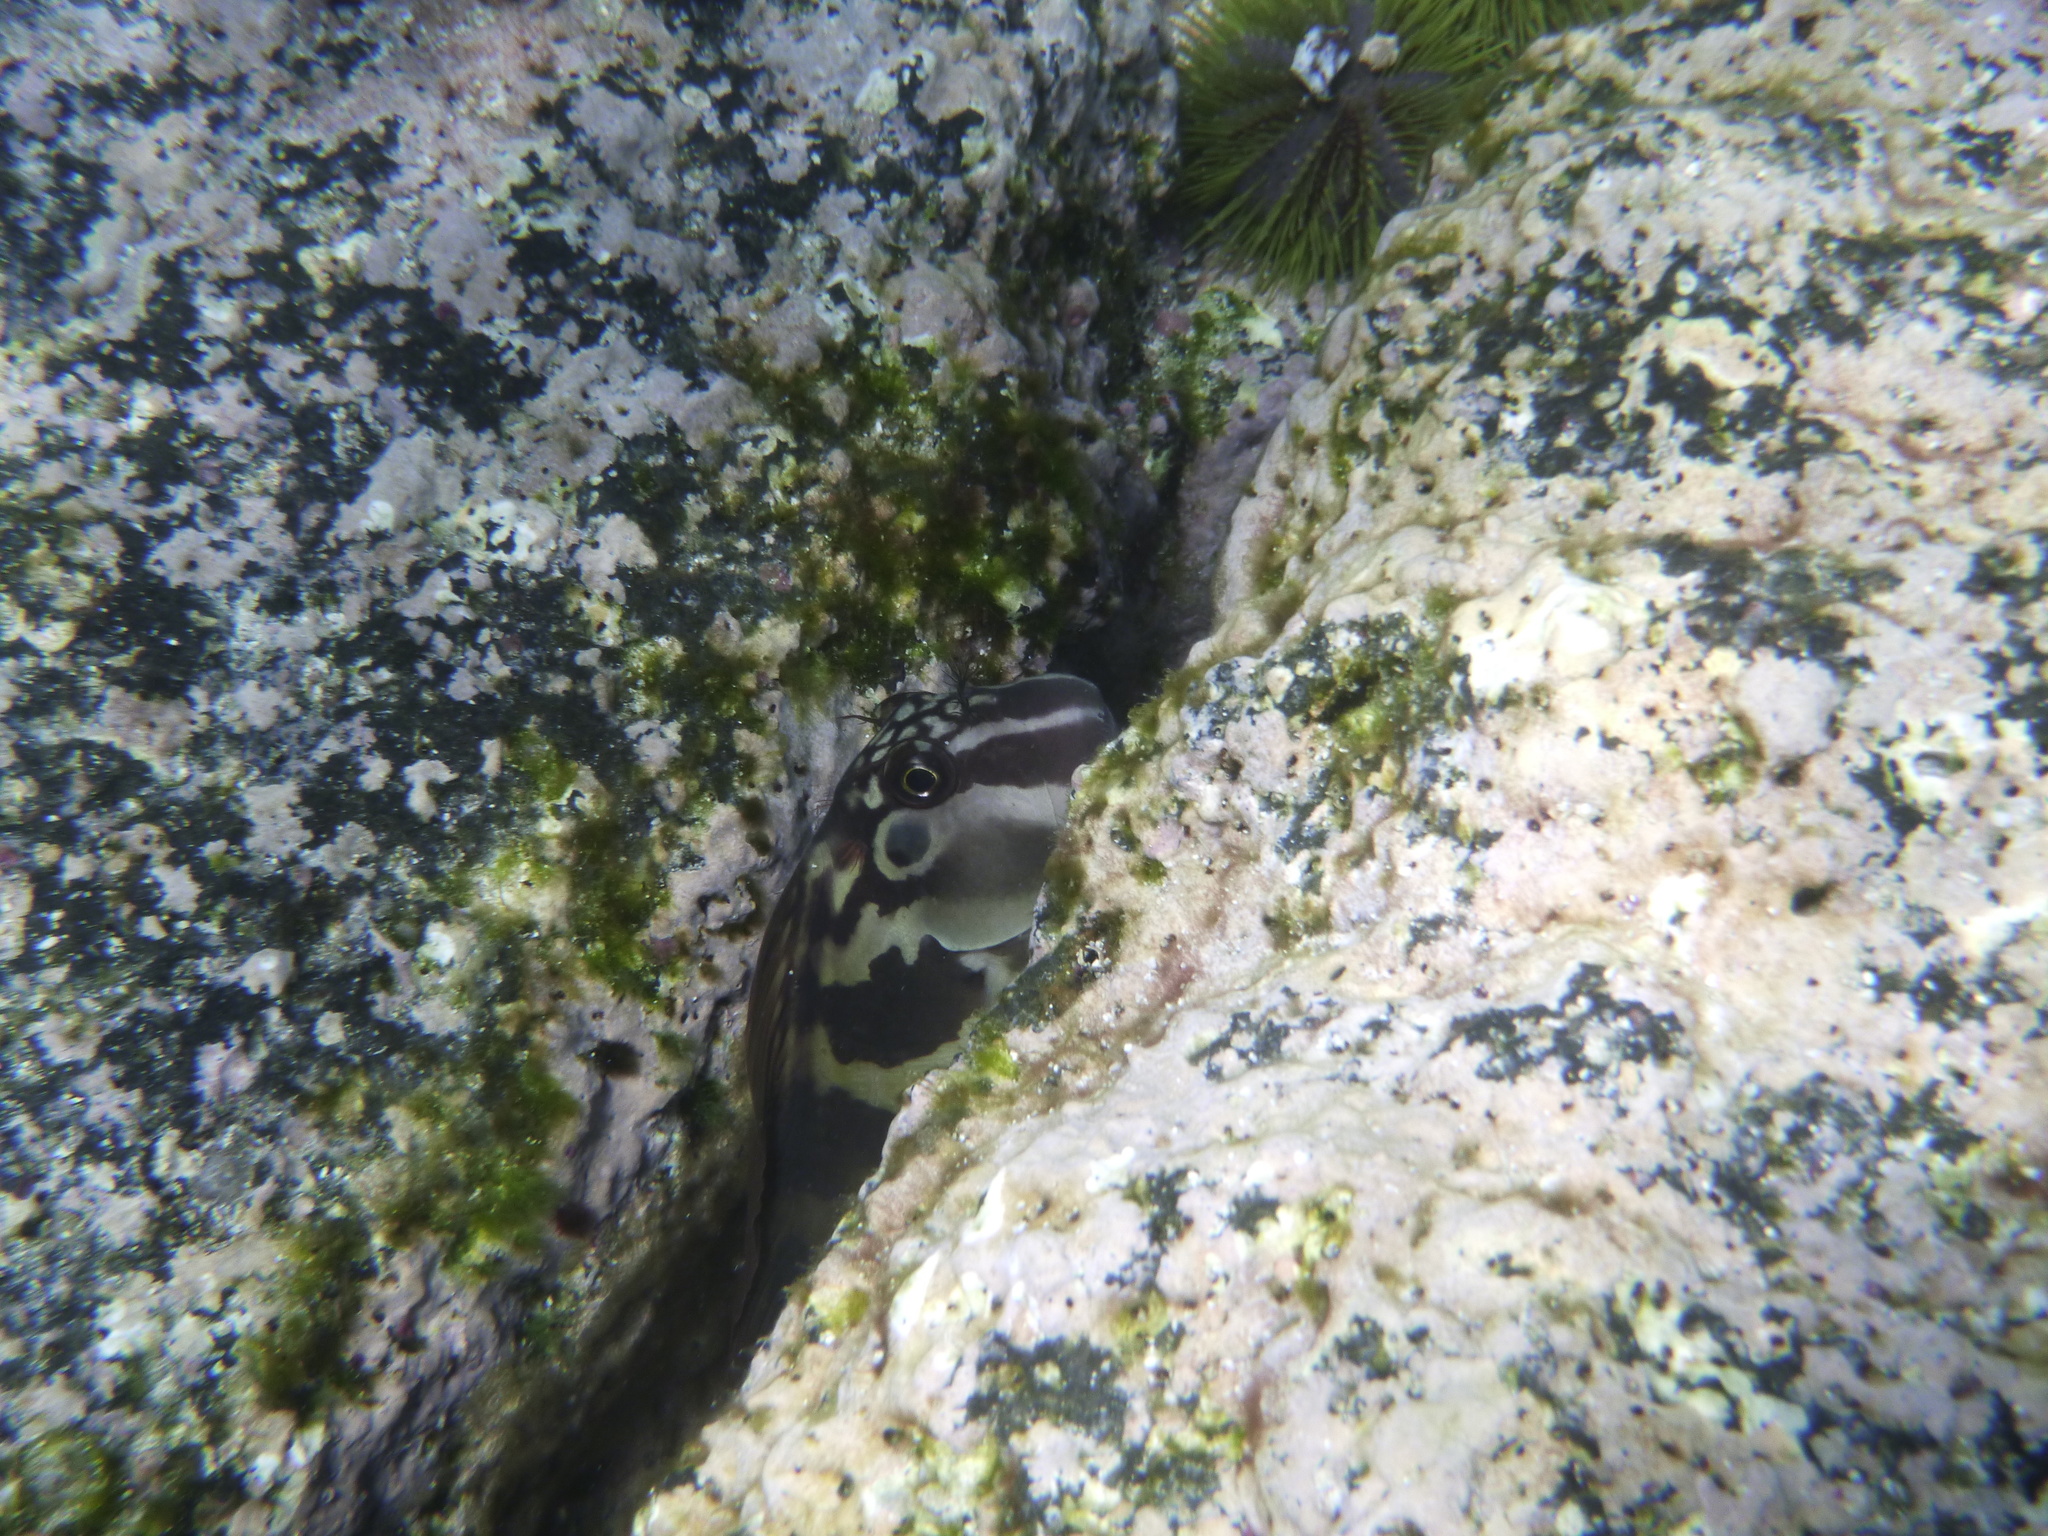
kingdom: Animalia
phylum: Chordata
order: Perciformes
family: Blenniidae
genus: Ophioblennius
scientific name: Ophioblennius steindachneri
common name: Panamic fanged blenny
